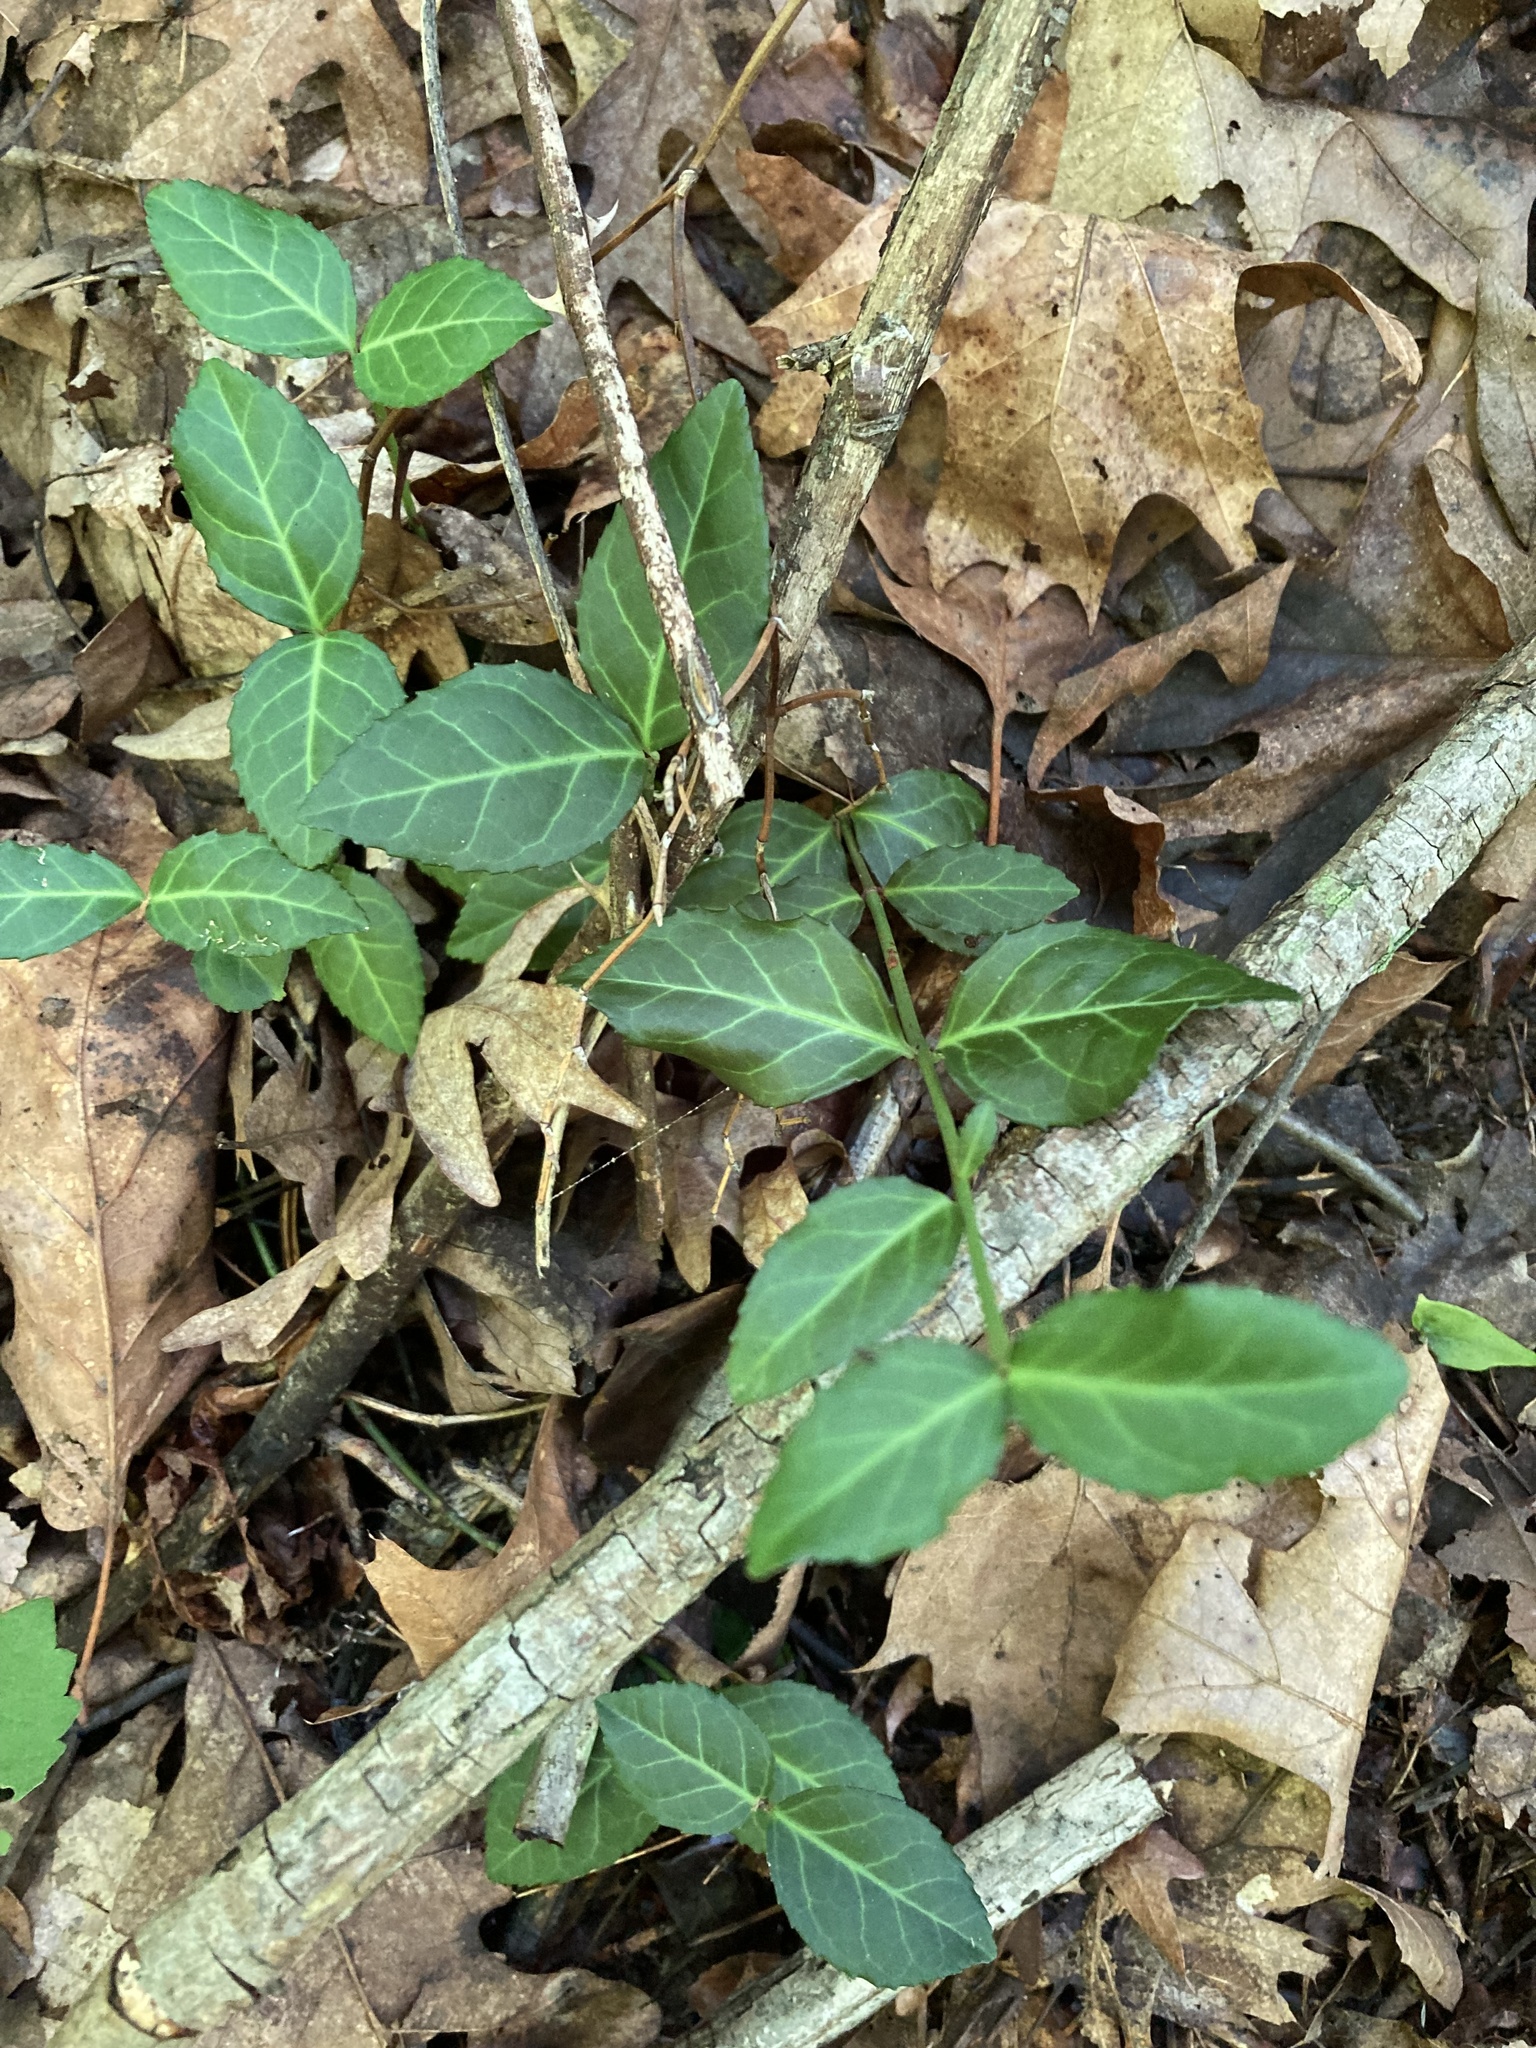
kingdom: Plantae
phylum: Tracheophyta
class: Magnoliopsida
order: Celastrales
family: Celastraceae
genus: Euonymus
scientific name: Euonymus fortunei
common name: Climbing euonymus
